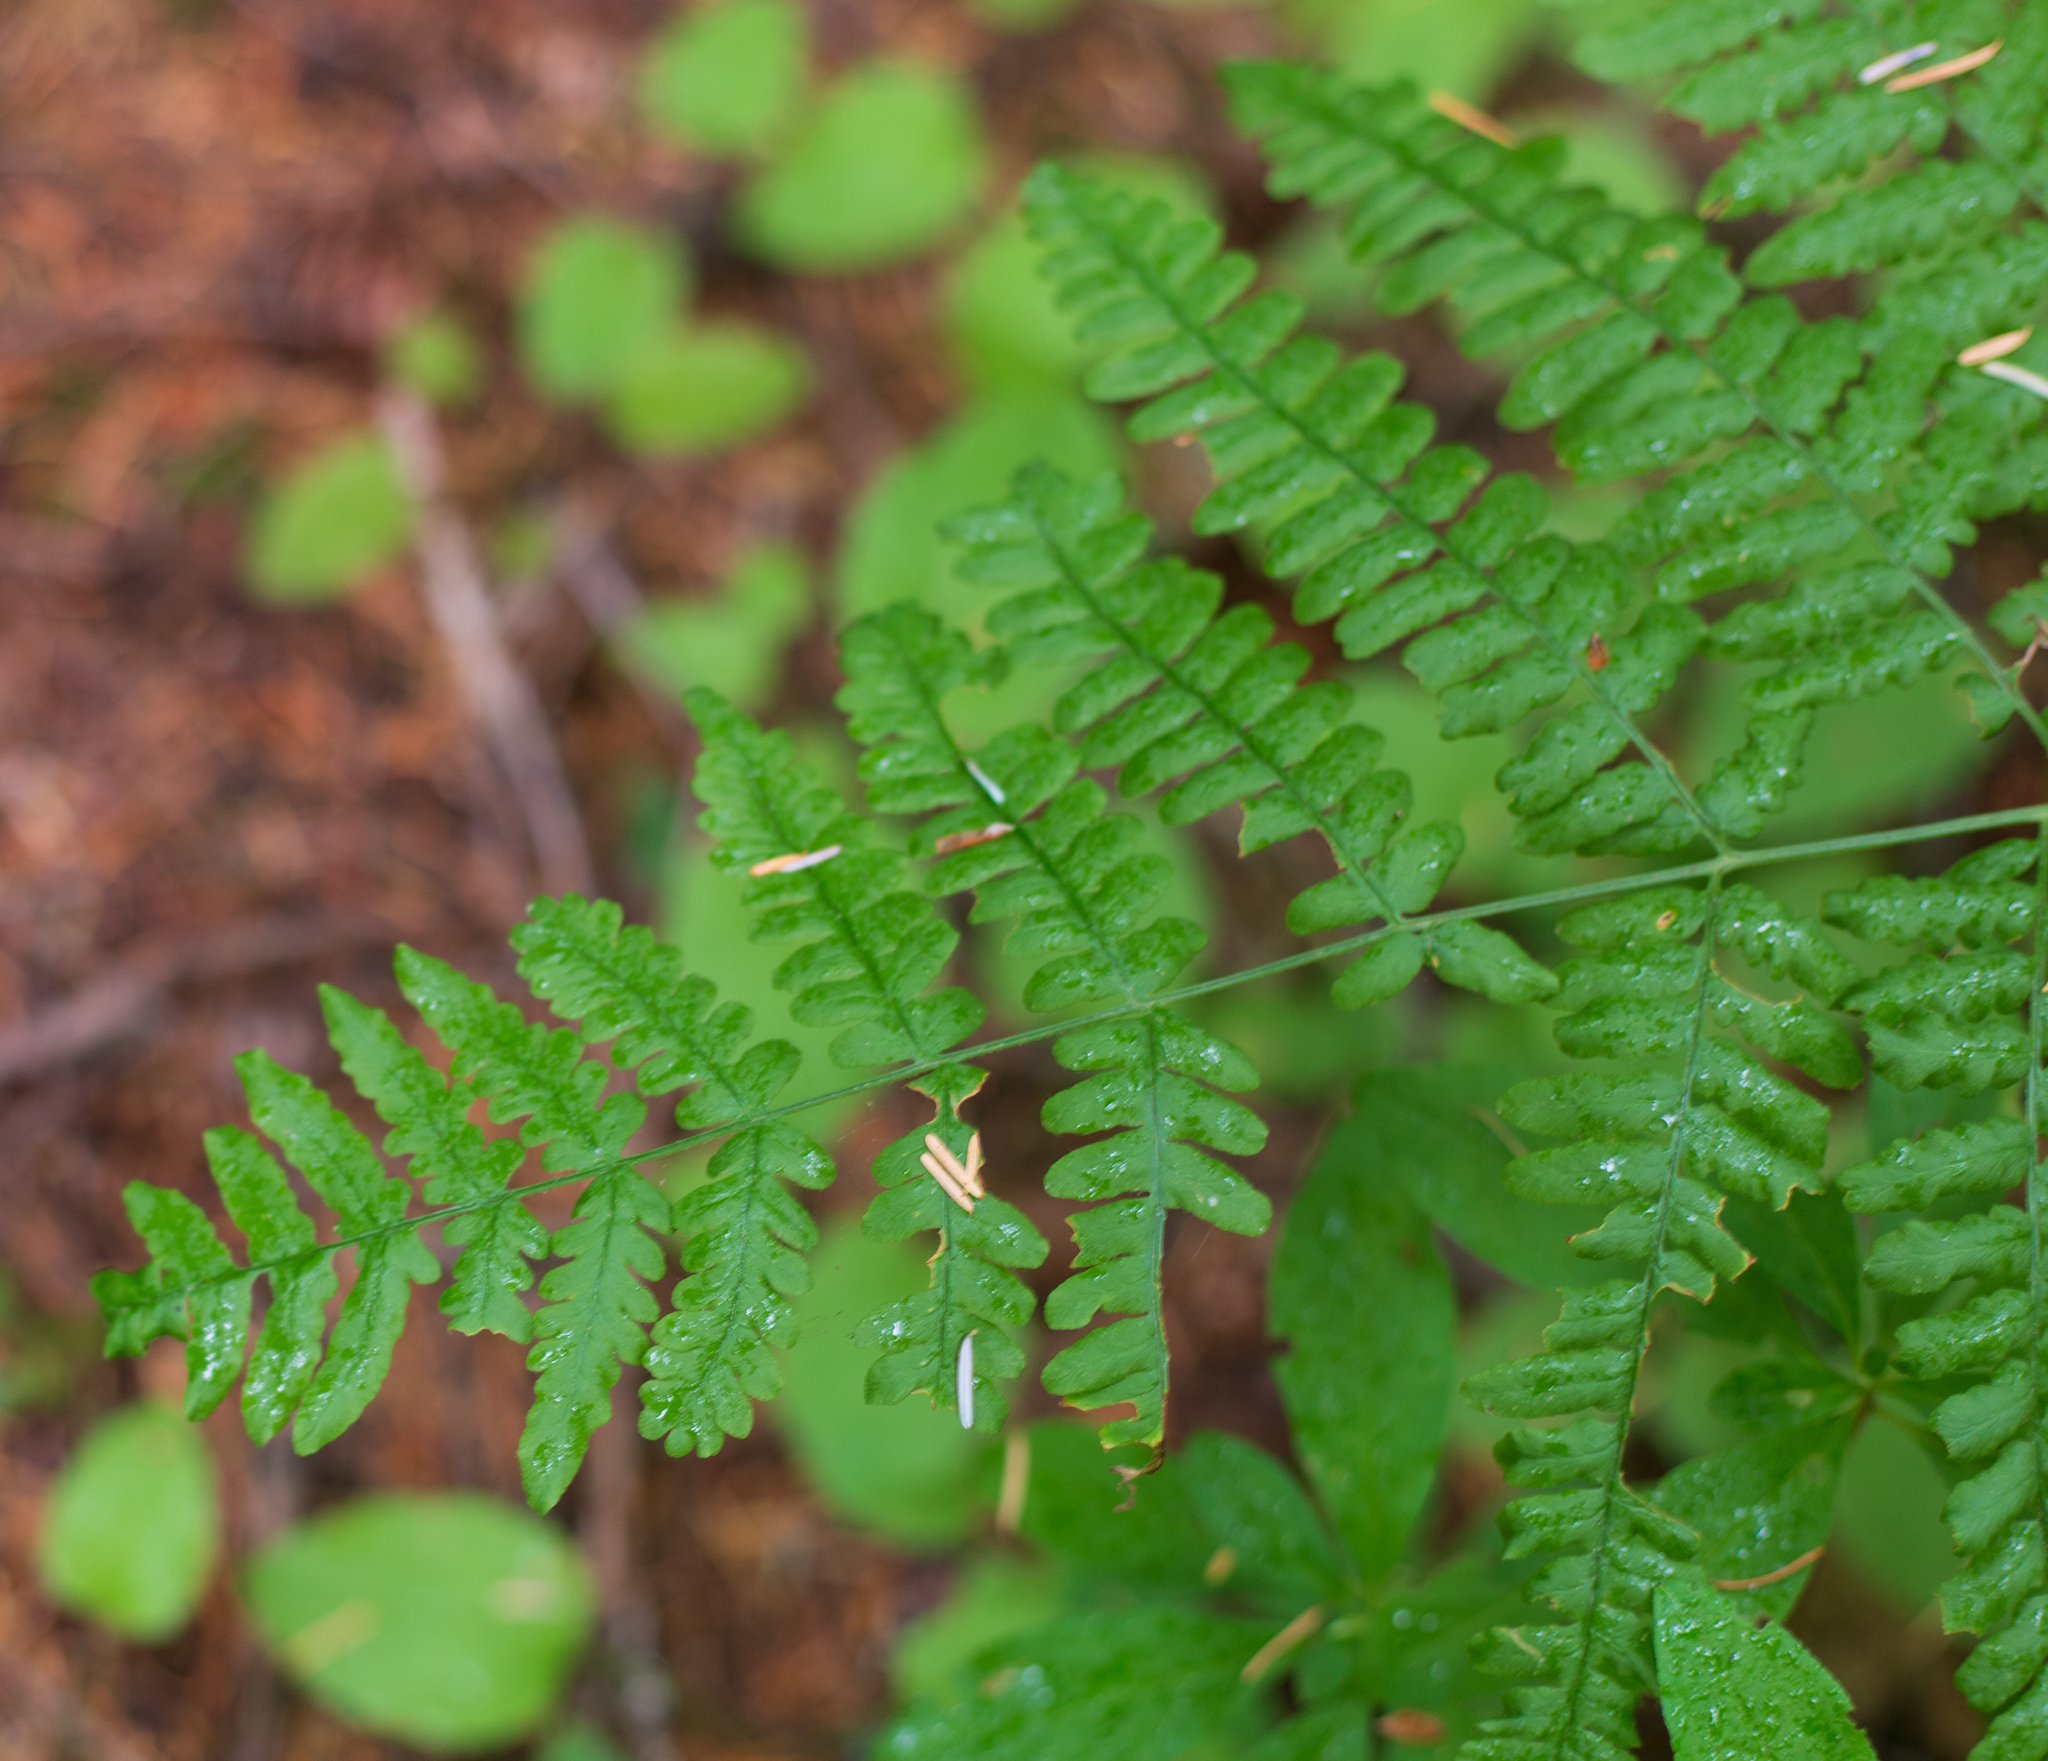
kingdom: Plantae
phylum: Tracheophyta
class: Polypodiopsida
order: Polypodiales
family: Dennstaedtiaceae
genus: Pteridium
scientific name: Pteridium aquilinum
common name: Bracken
